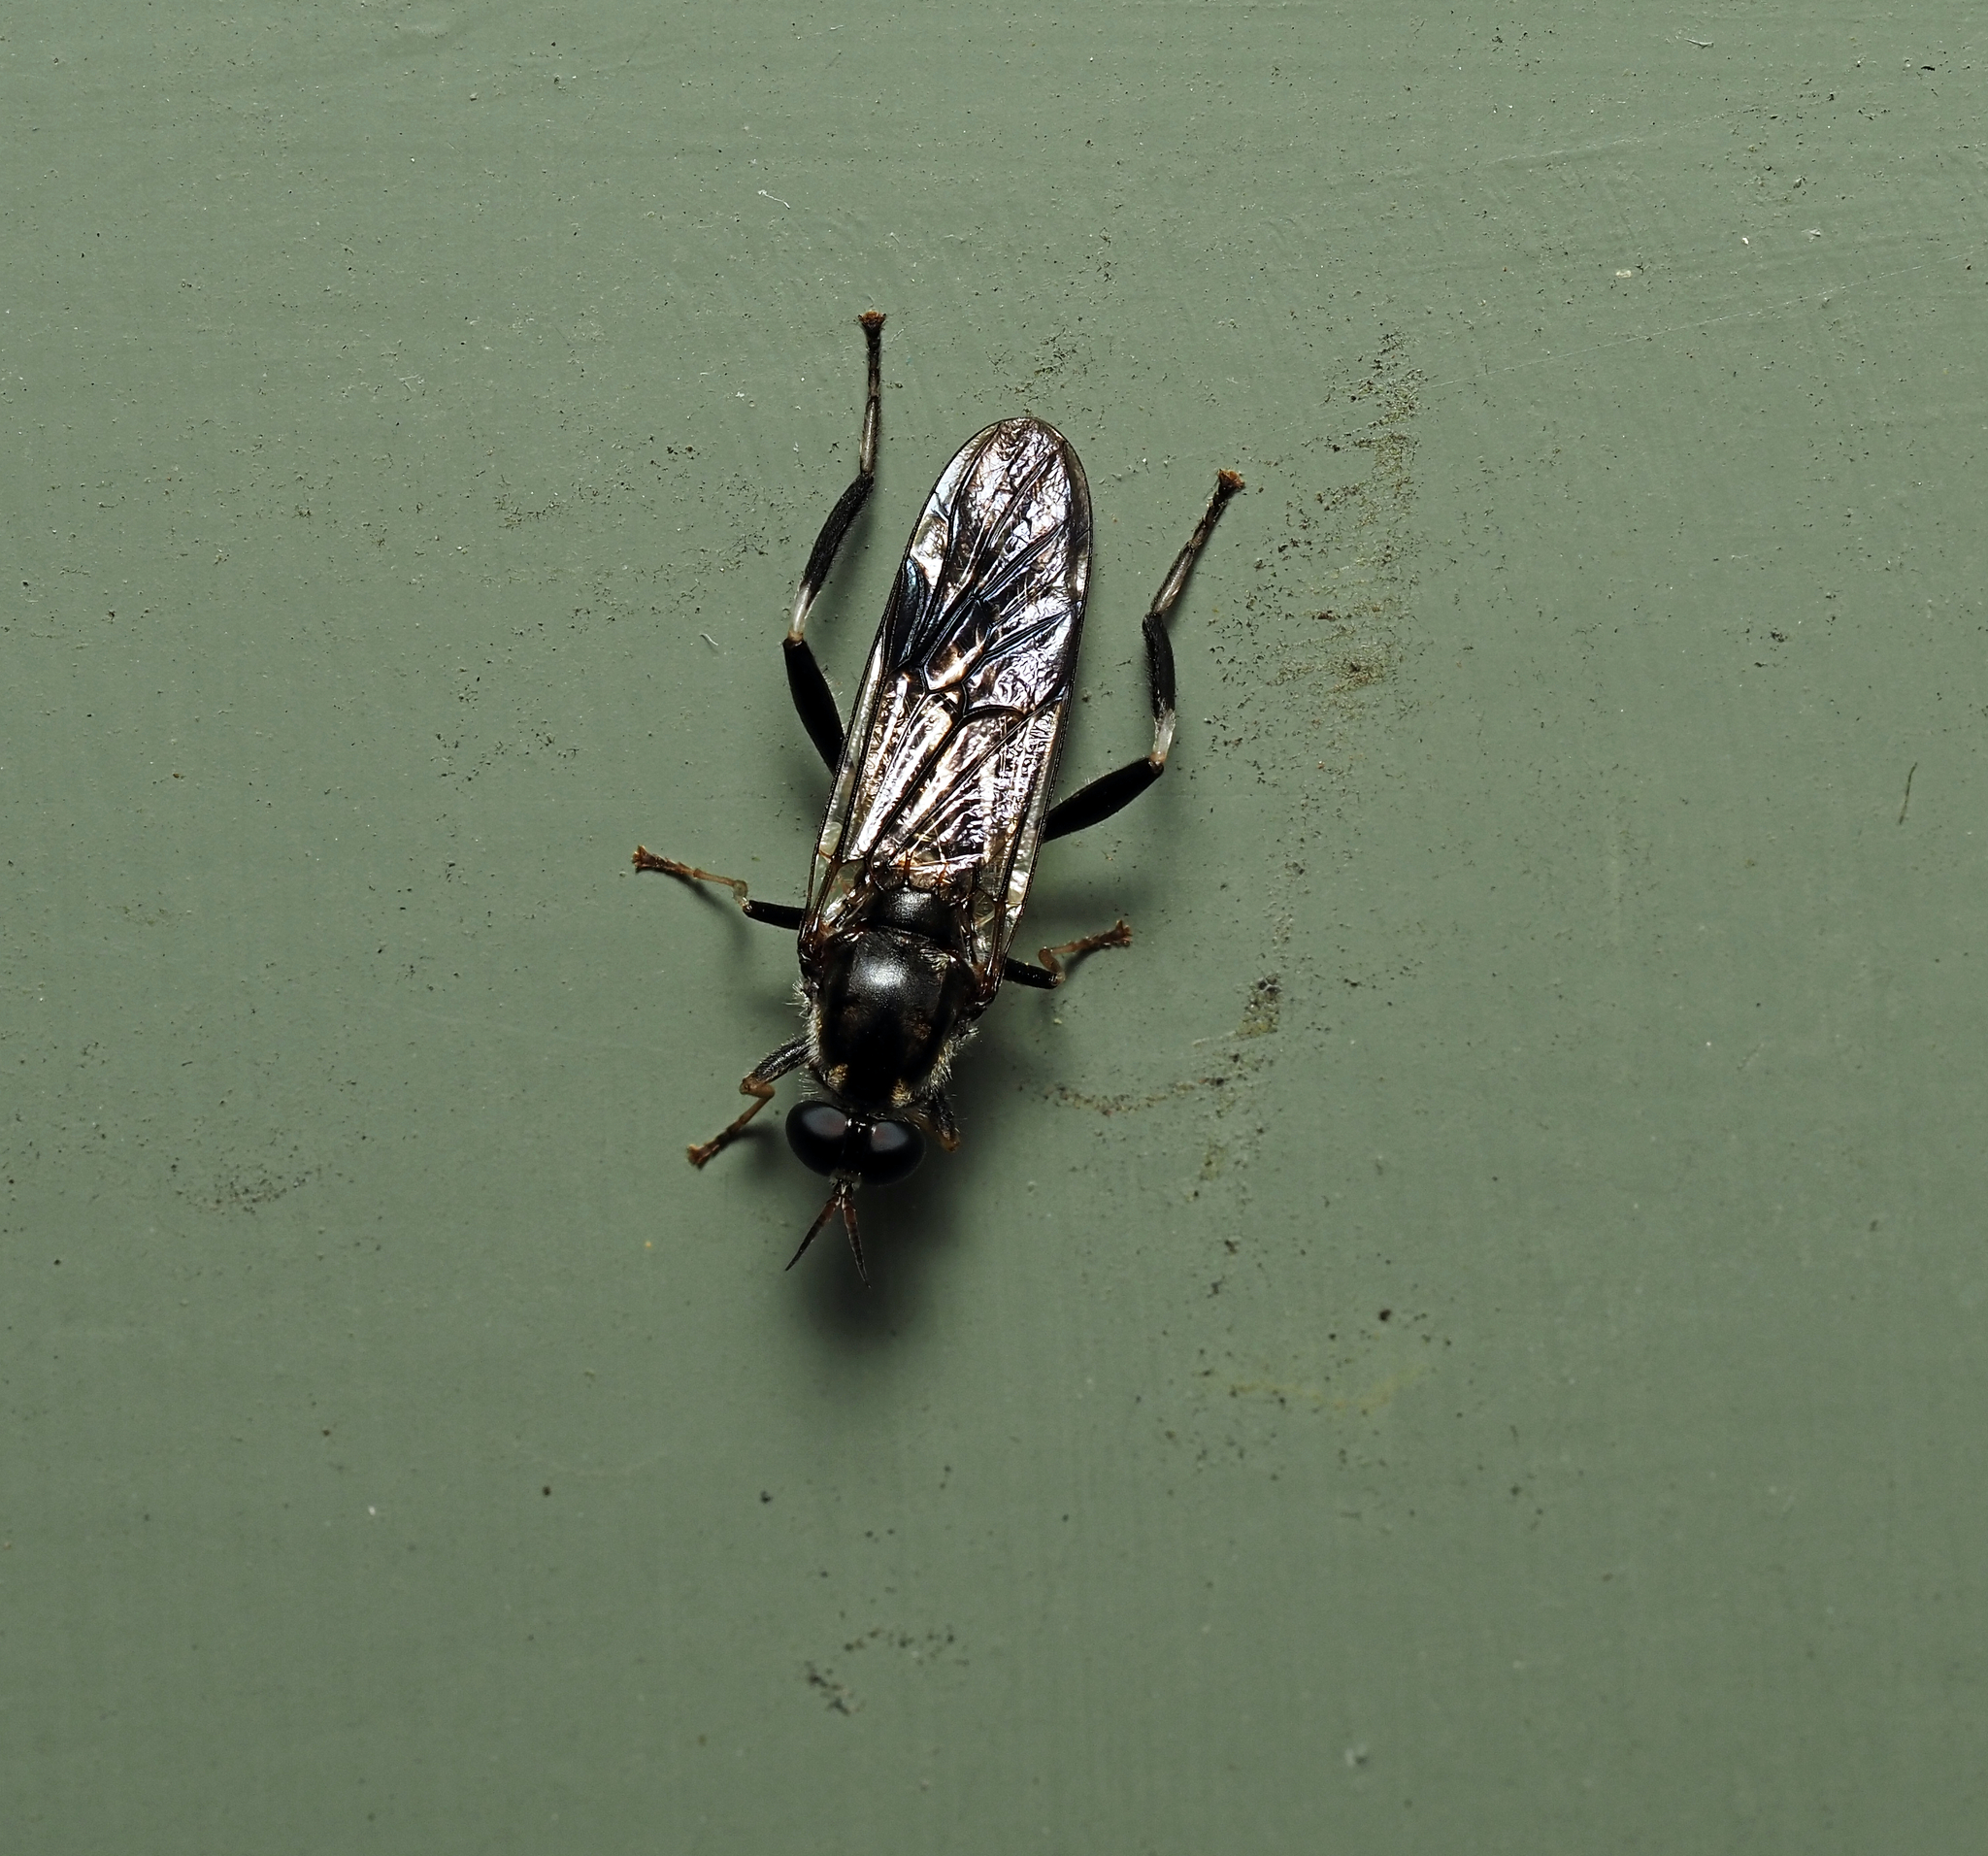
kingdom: Animalia
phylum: Arthropoda
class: Insecta
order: Diptera
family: Stratiomyidae
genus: Exaireta
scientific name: Exaireta spinigera
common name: Blue soldier fly
